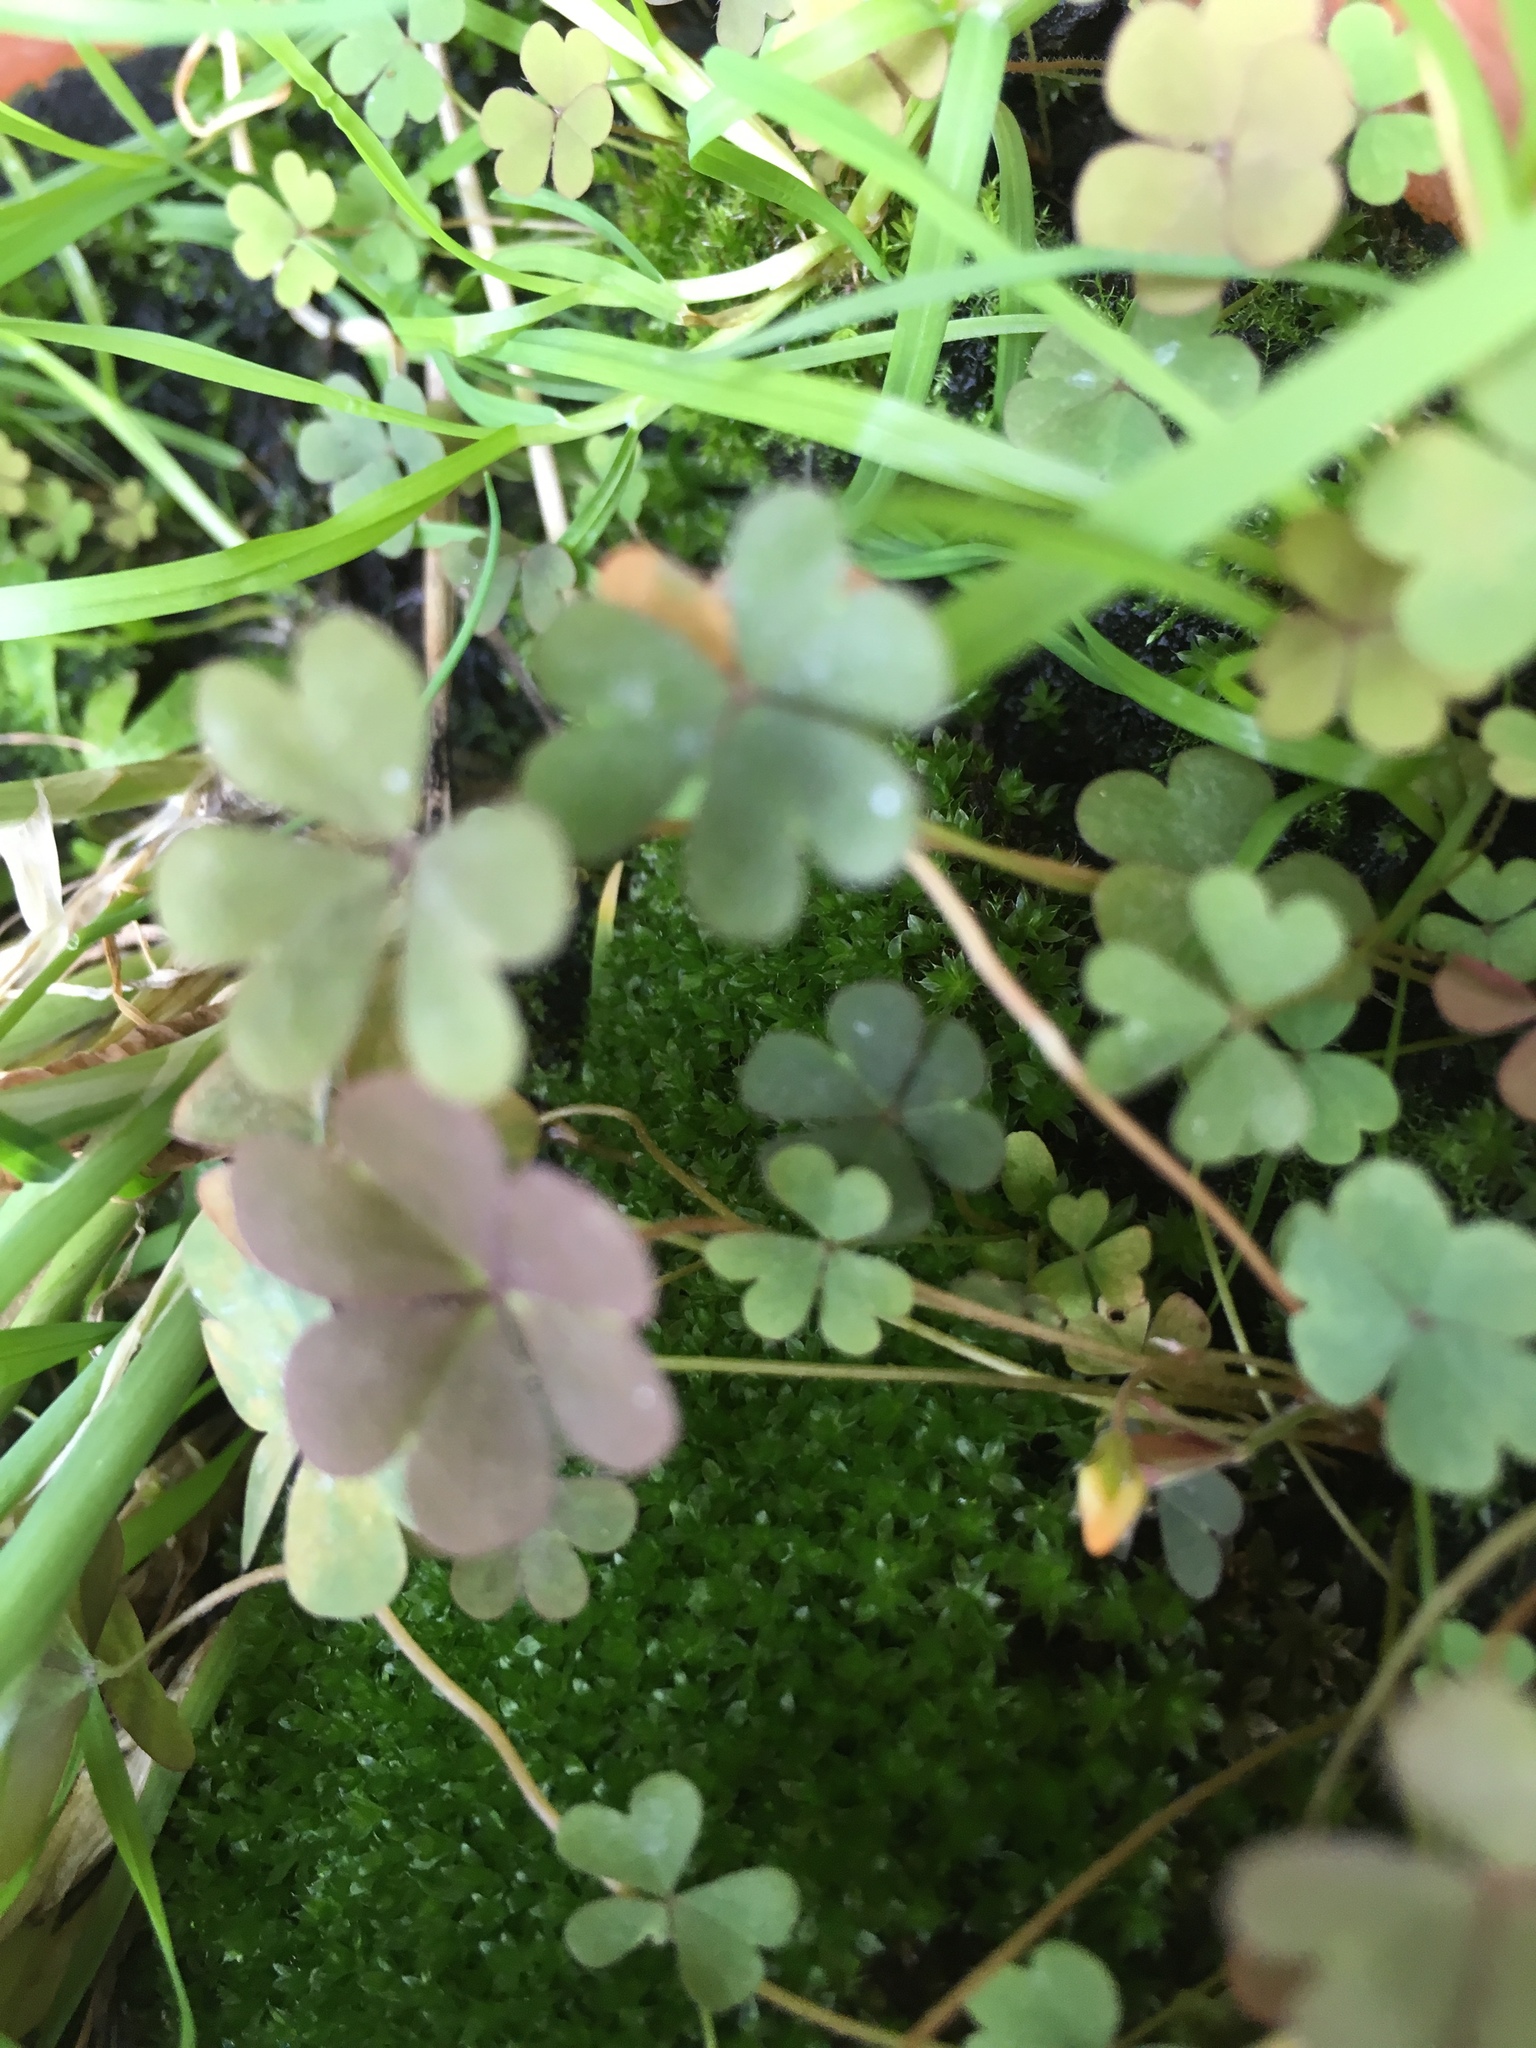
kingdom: Plantae
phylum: Tracheophyta
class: Magnoliopsida
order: Oxalidales
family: Oxalidaceae
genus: Oxalis
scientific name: Oxalis corniculata
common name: Procumbent yellow-sorrel
